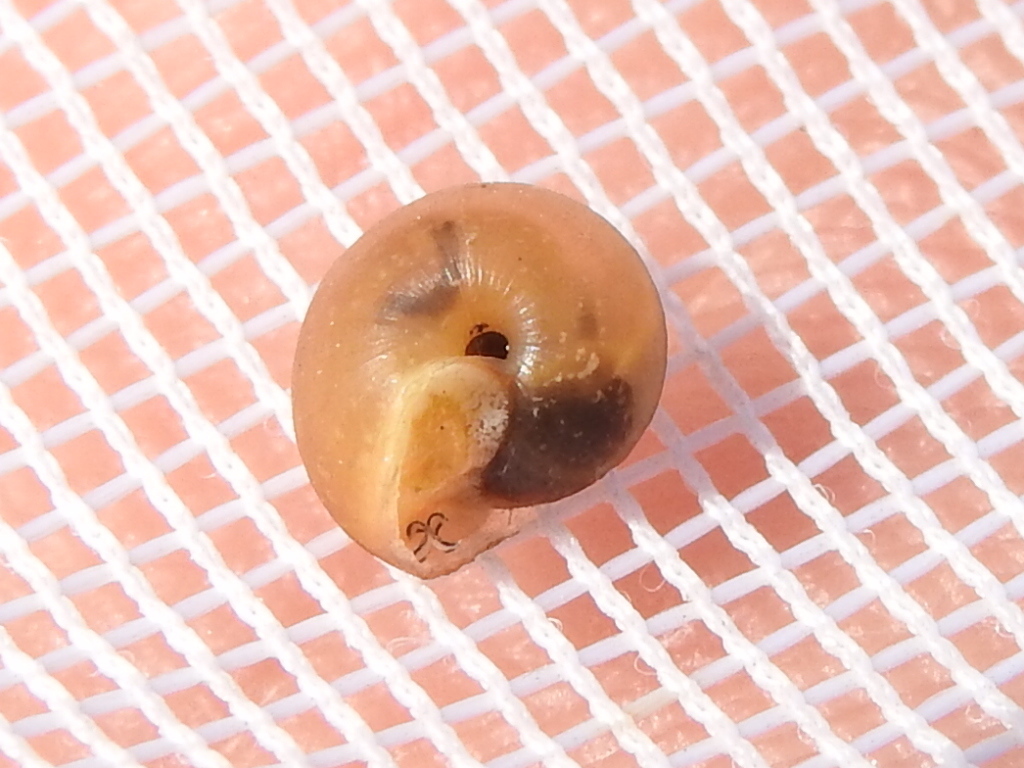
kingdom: Animalia
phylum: Mollusca
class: Gastropoda
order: Stylommatophora
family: Camaenidae
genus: Bradybaena
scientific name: Bradybaena similaris
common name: Asian trampsnail
